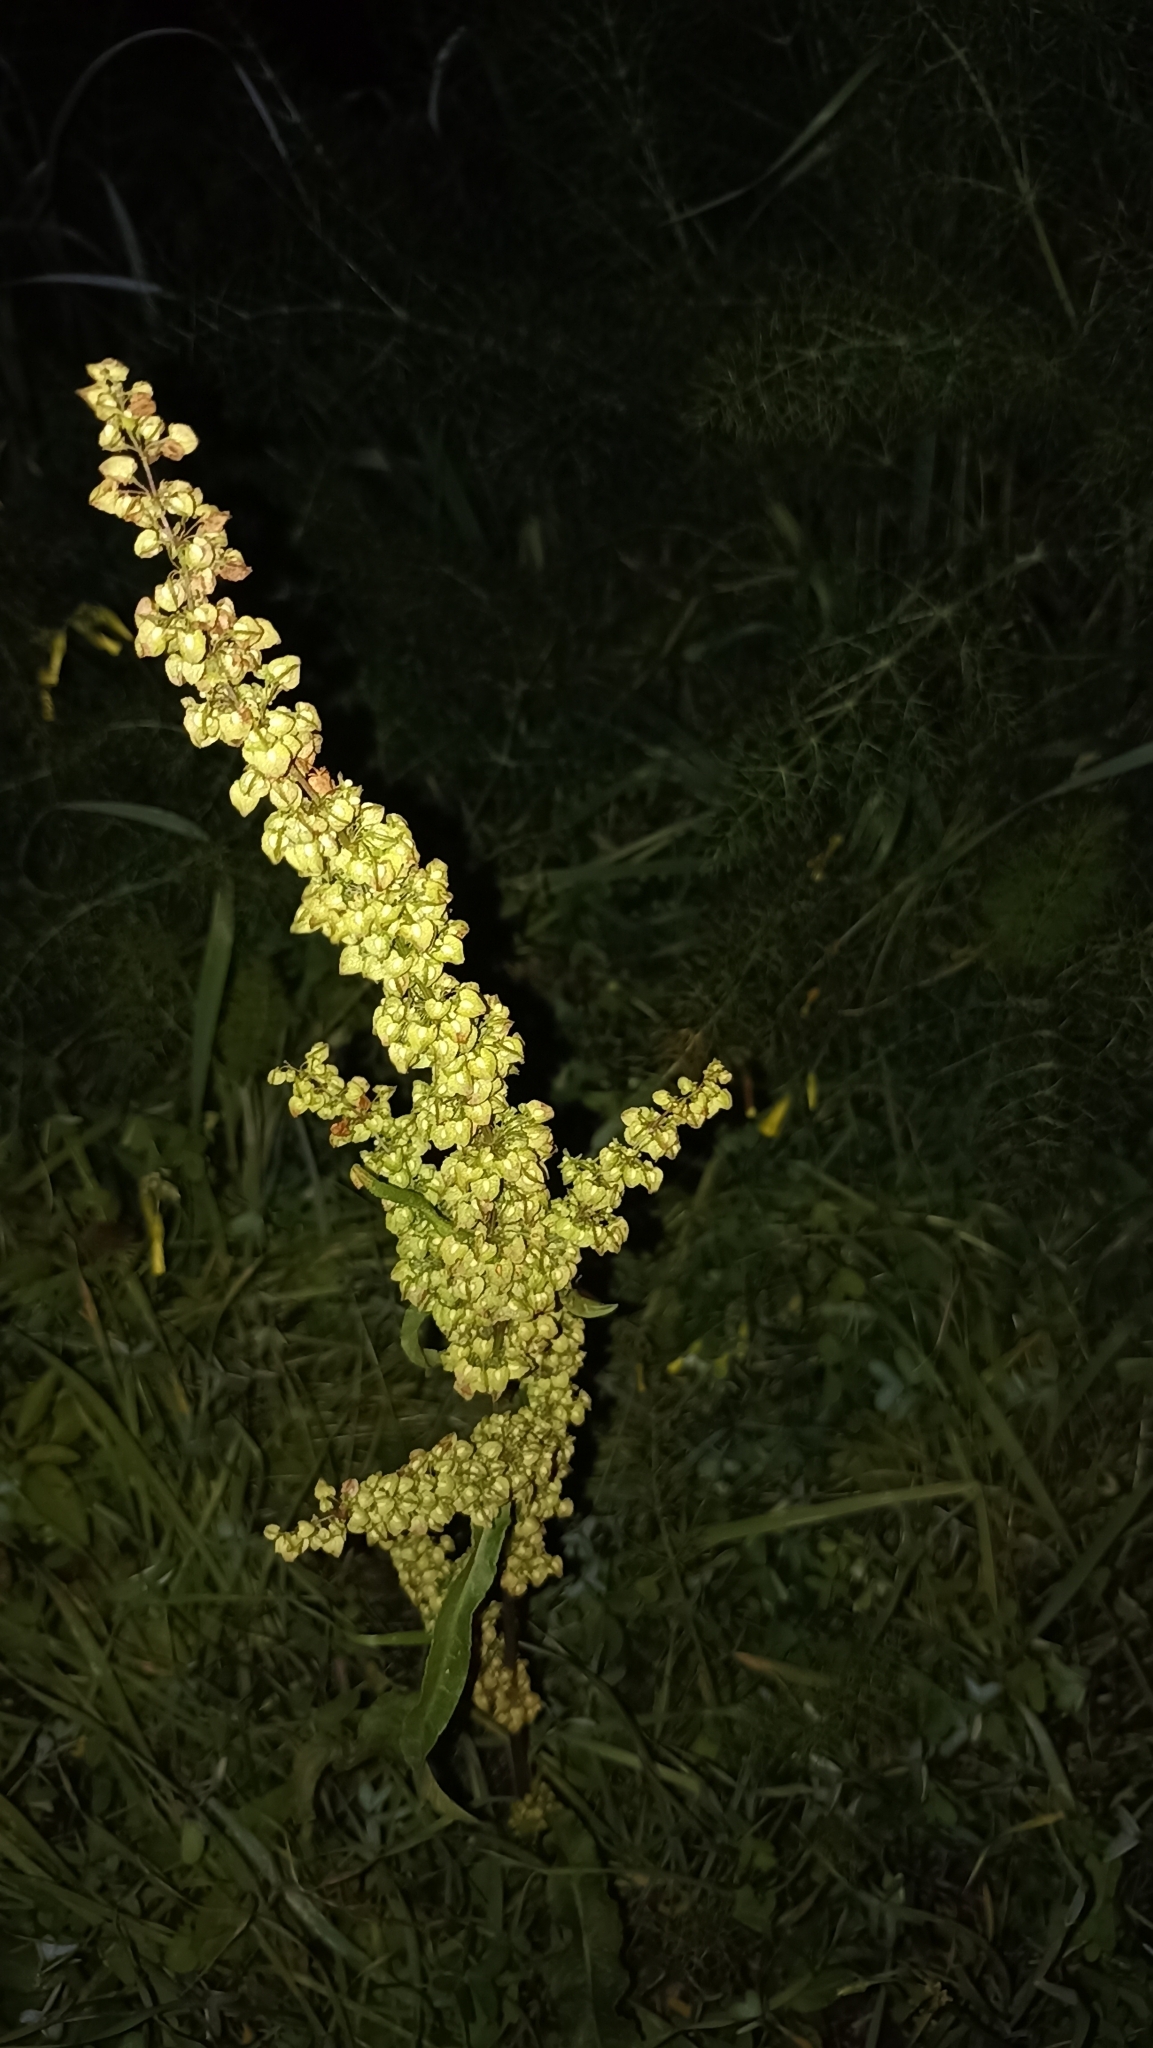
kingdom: Plantae
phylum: Tracheophyta
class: Magnoliopsida
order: Caryophyllales
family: Polygonaceae
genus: Rumex
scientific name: Rumex crispus
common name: Curled dock
